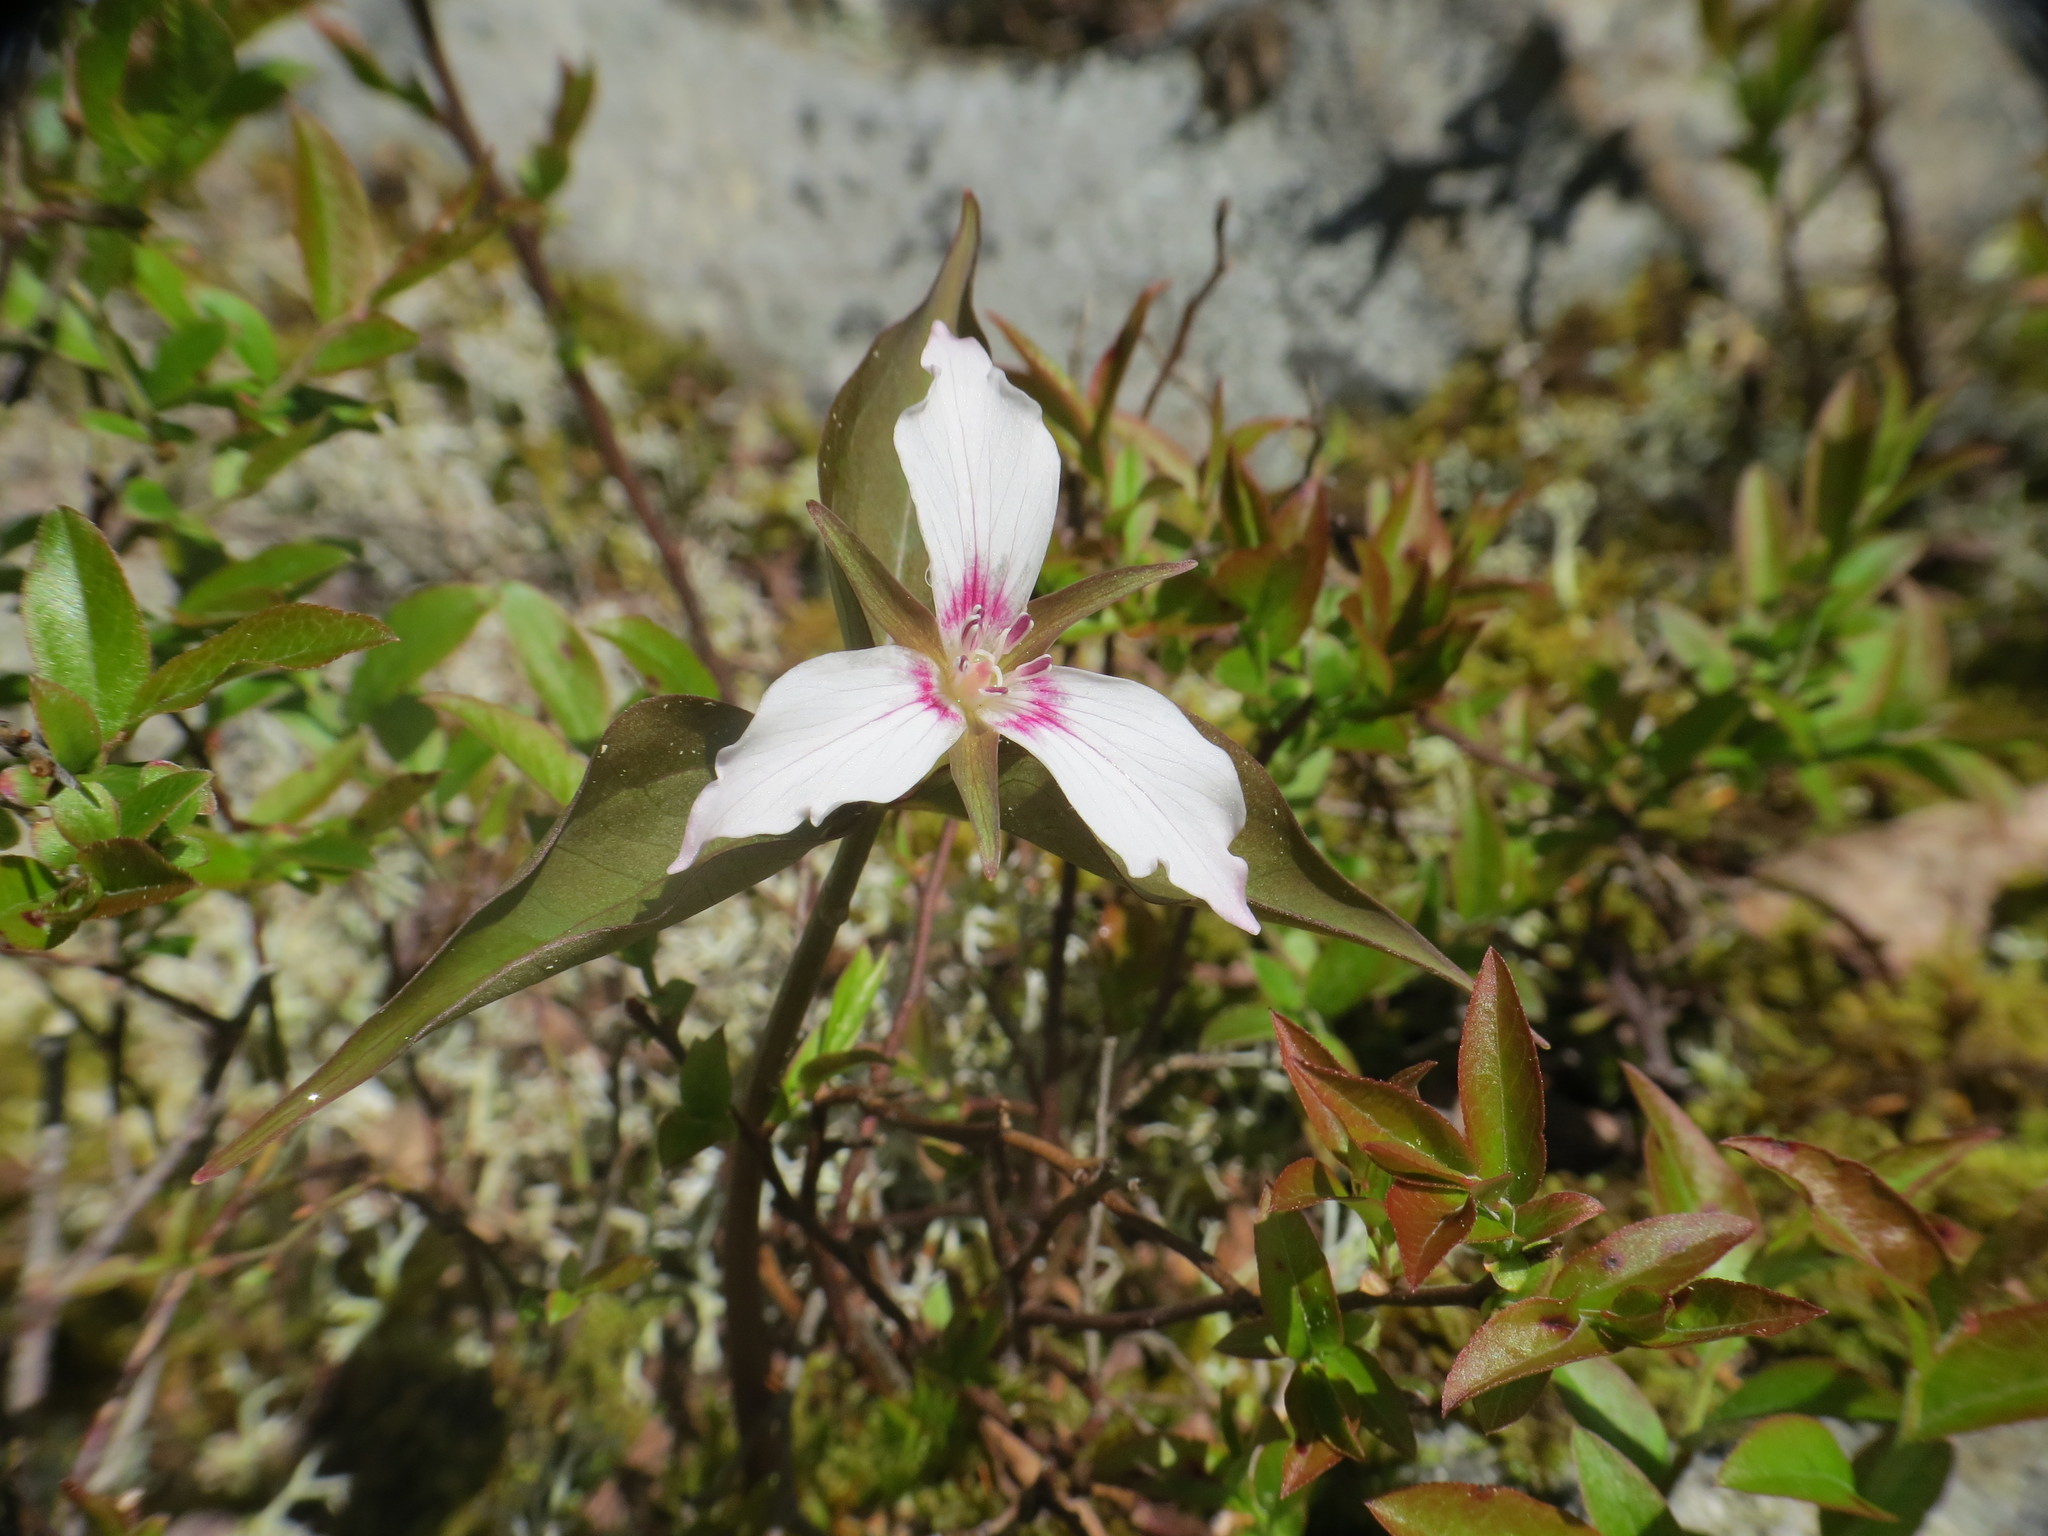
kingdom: Plantae
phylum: Tracheophyta
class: Liliopsida
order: Liliales
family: Melanthiaceae
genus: Trillium
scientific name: Trillium undulatum
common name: Paint trillium
